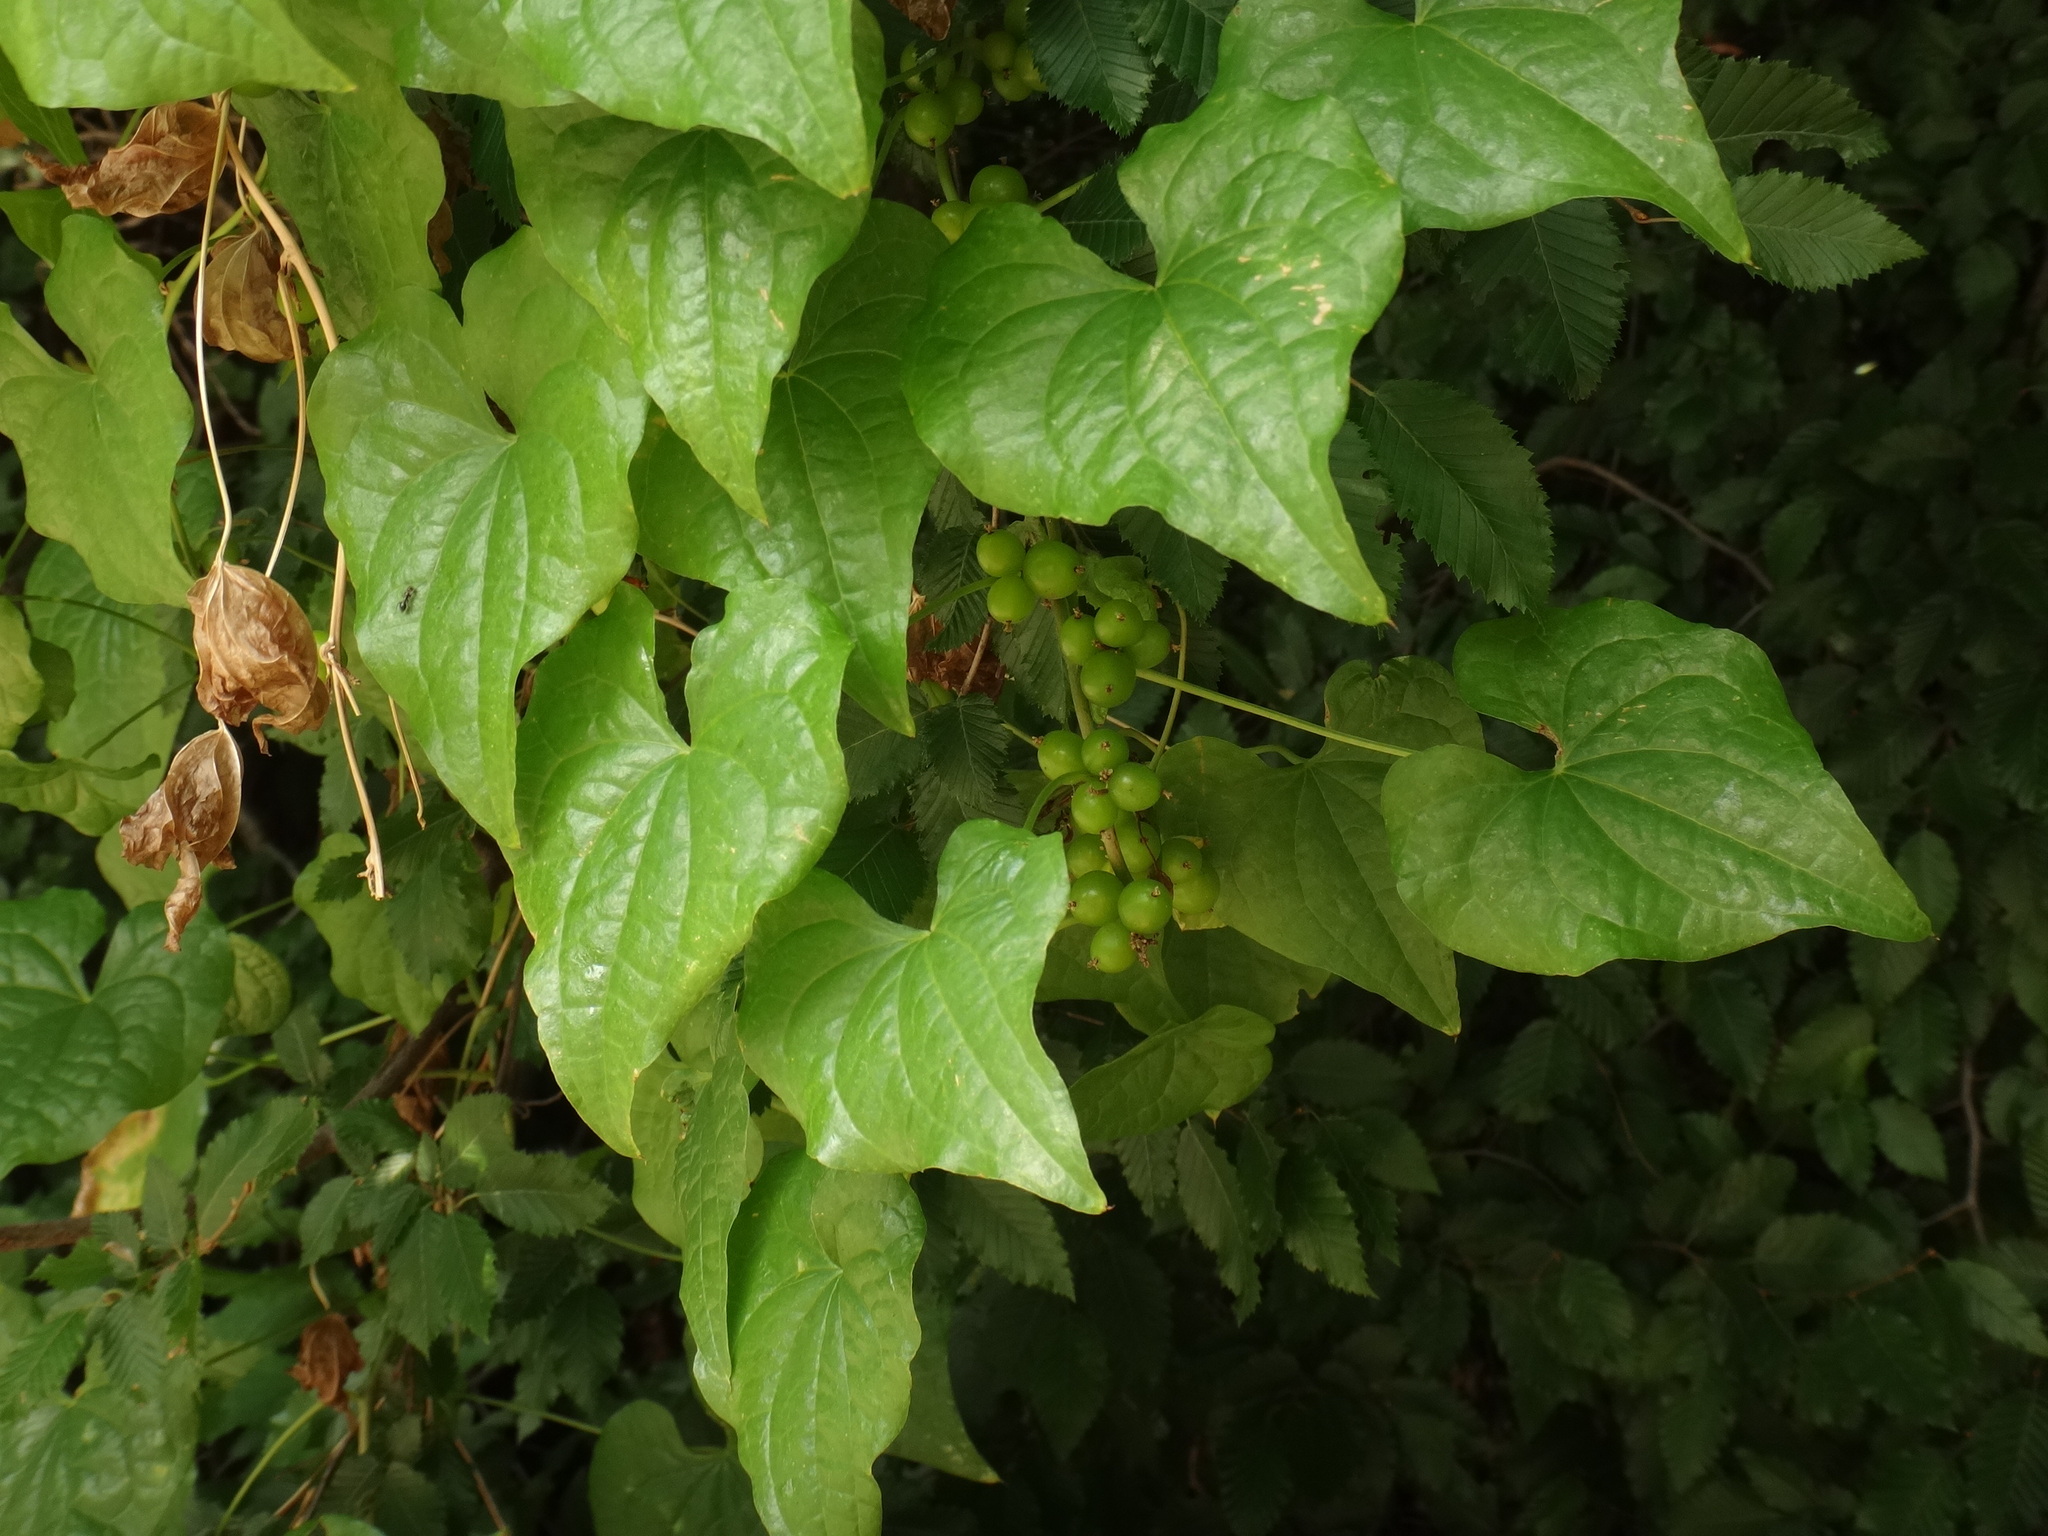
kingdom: Plantae
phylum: Tracheophyta
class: Liliopsida
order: Dioscoreales
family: Dioscoreaceae
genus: Dioscorea
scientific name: Dioscorea communis
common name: Black-bindweed
